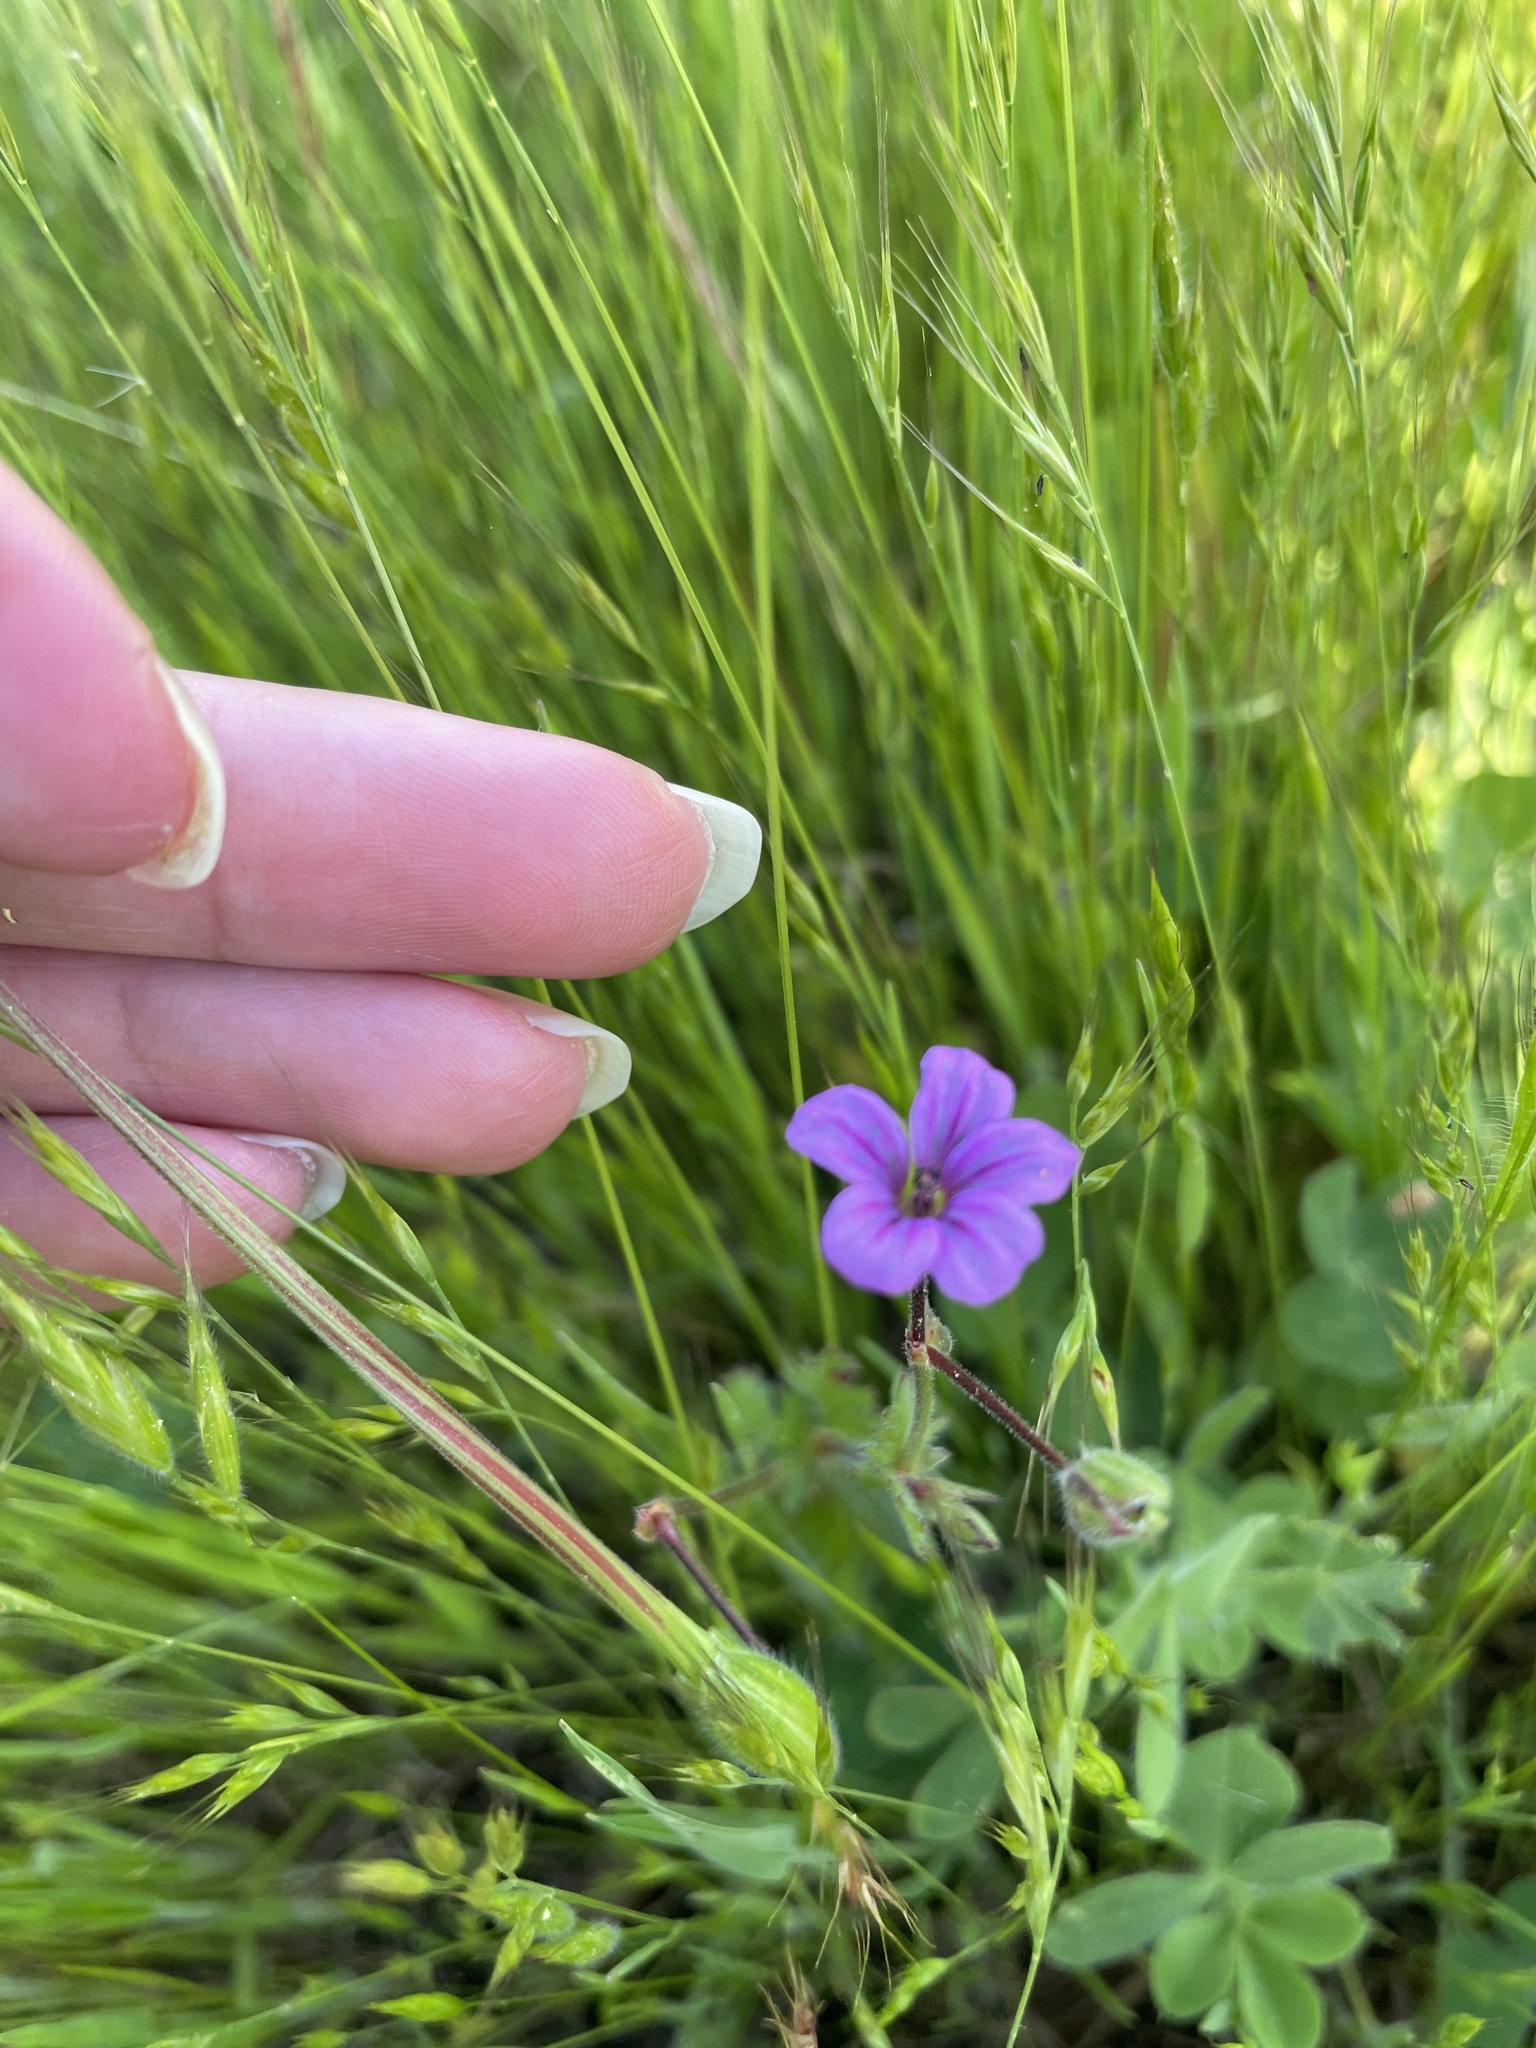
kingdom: Plantae
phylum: Tracheophyta
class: Magnoliopsida
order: Geraniales
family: Geraniaceae
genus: Erodium
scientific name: Erodium botrys
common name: Mediterranean stork's-bill
